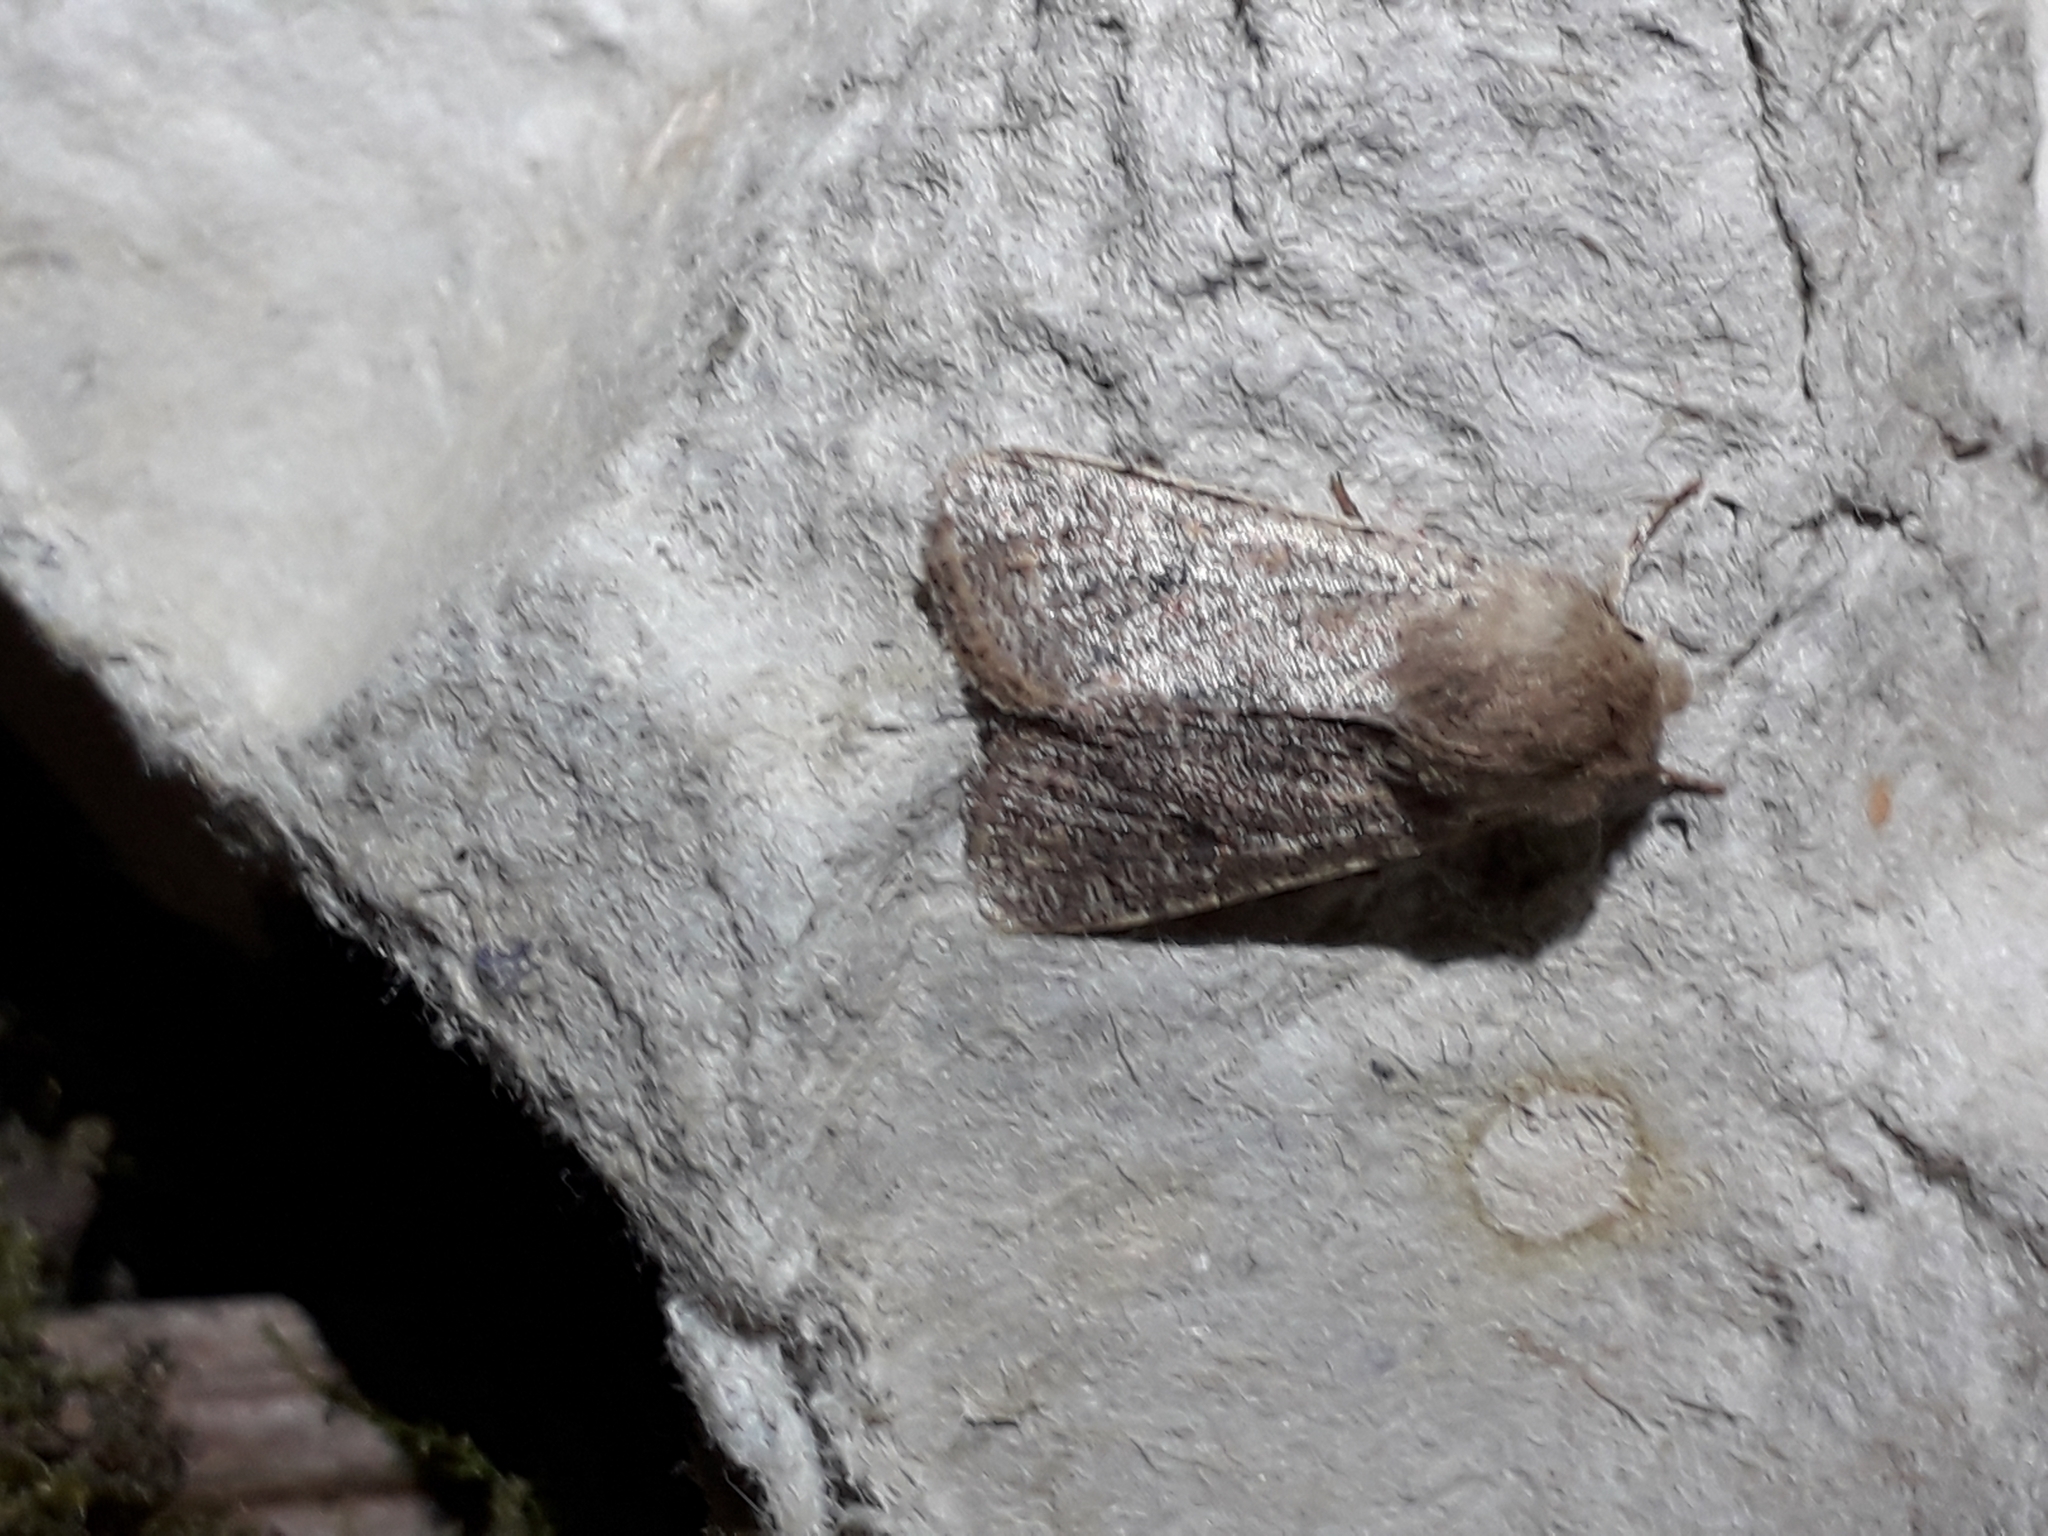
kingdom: Animalia
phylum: Arthropoda
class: Insecta
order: Lepidoptera
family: Noctuidae
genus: Orthosia
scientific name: Orthosia cruda
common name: Small quaker
